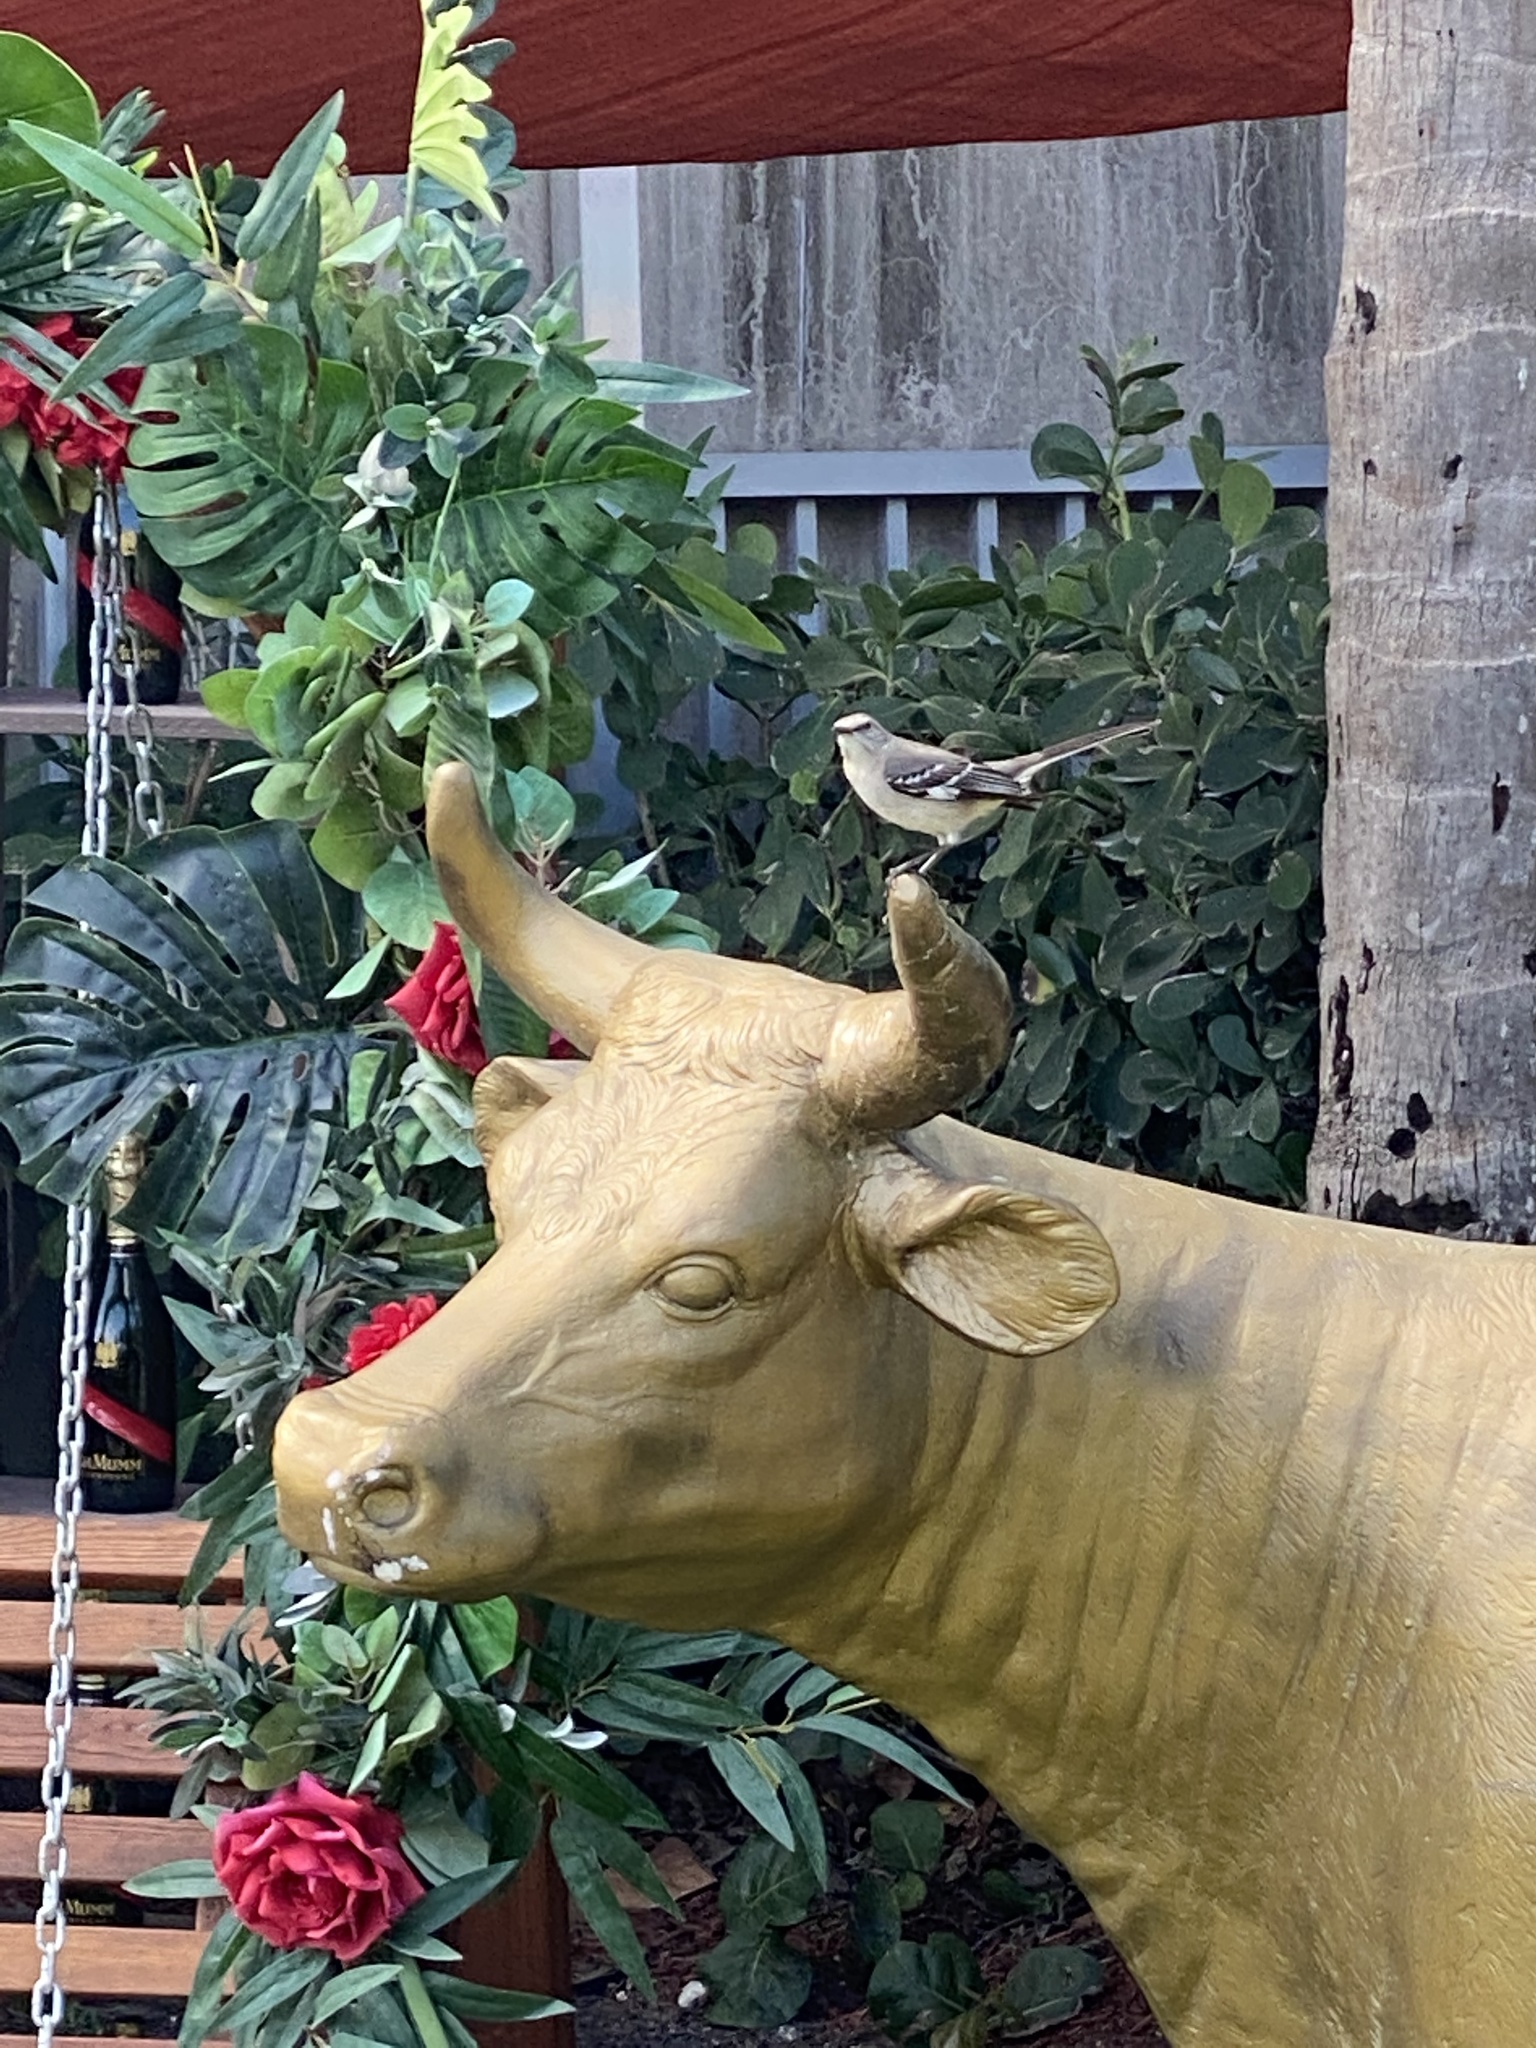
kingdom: Animalia
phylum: Chordata
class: Aves
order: Passeriformes
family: Mimidae
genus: Mimus
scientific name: Mimus polyglottos
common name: Northern mockingbird
